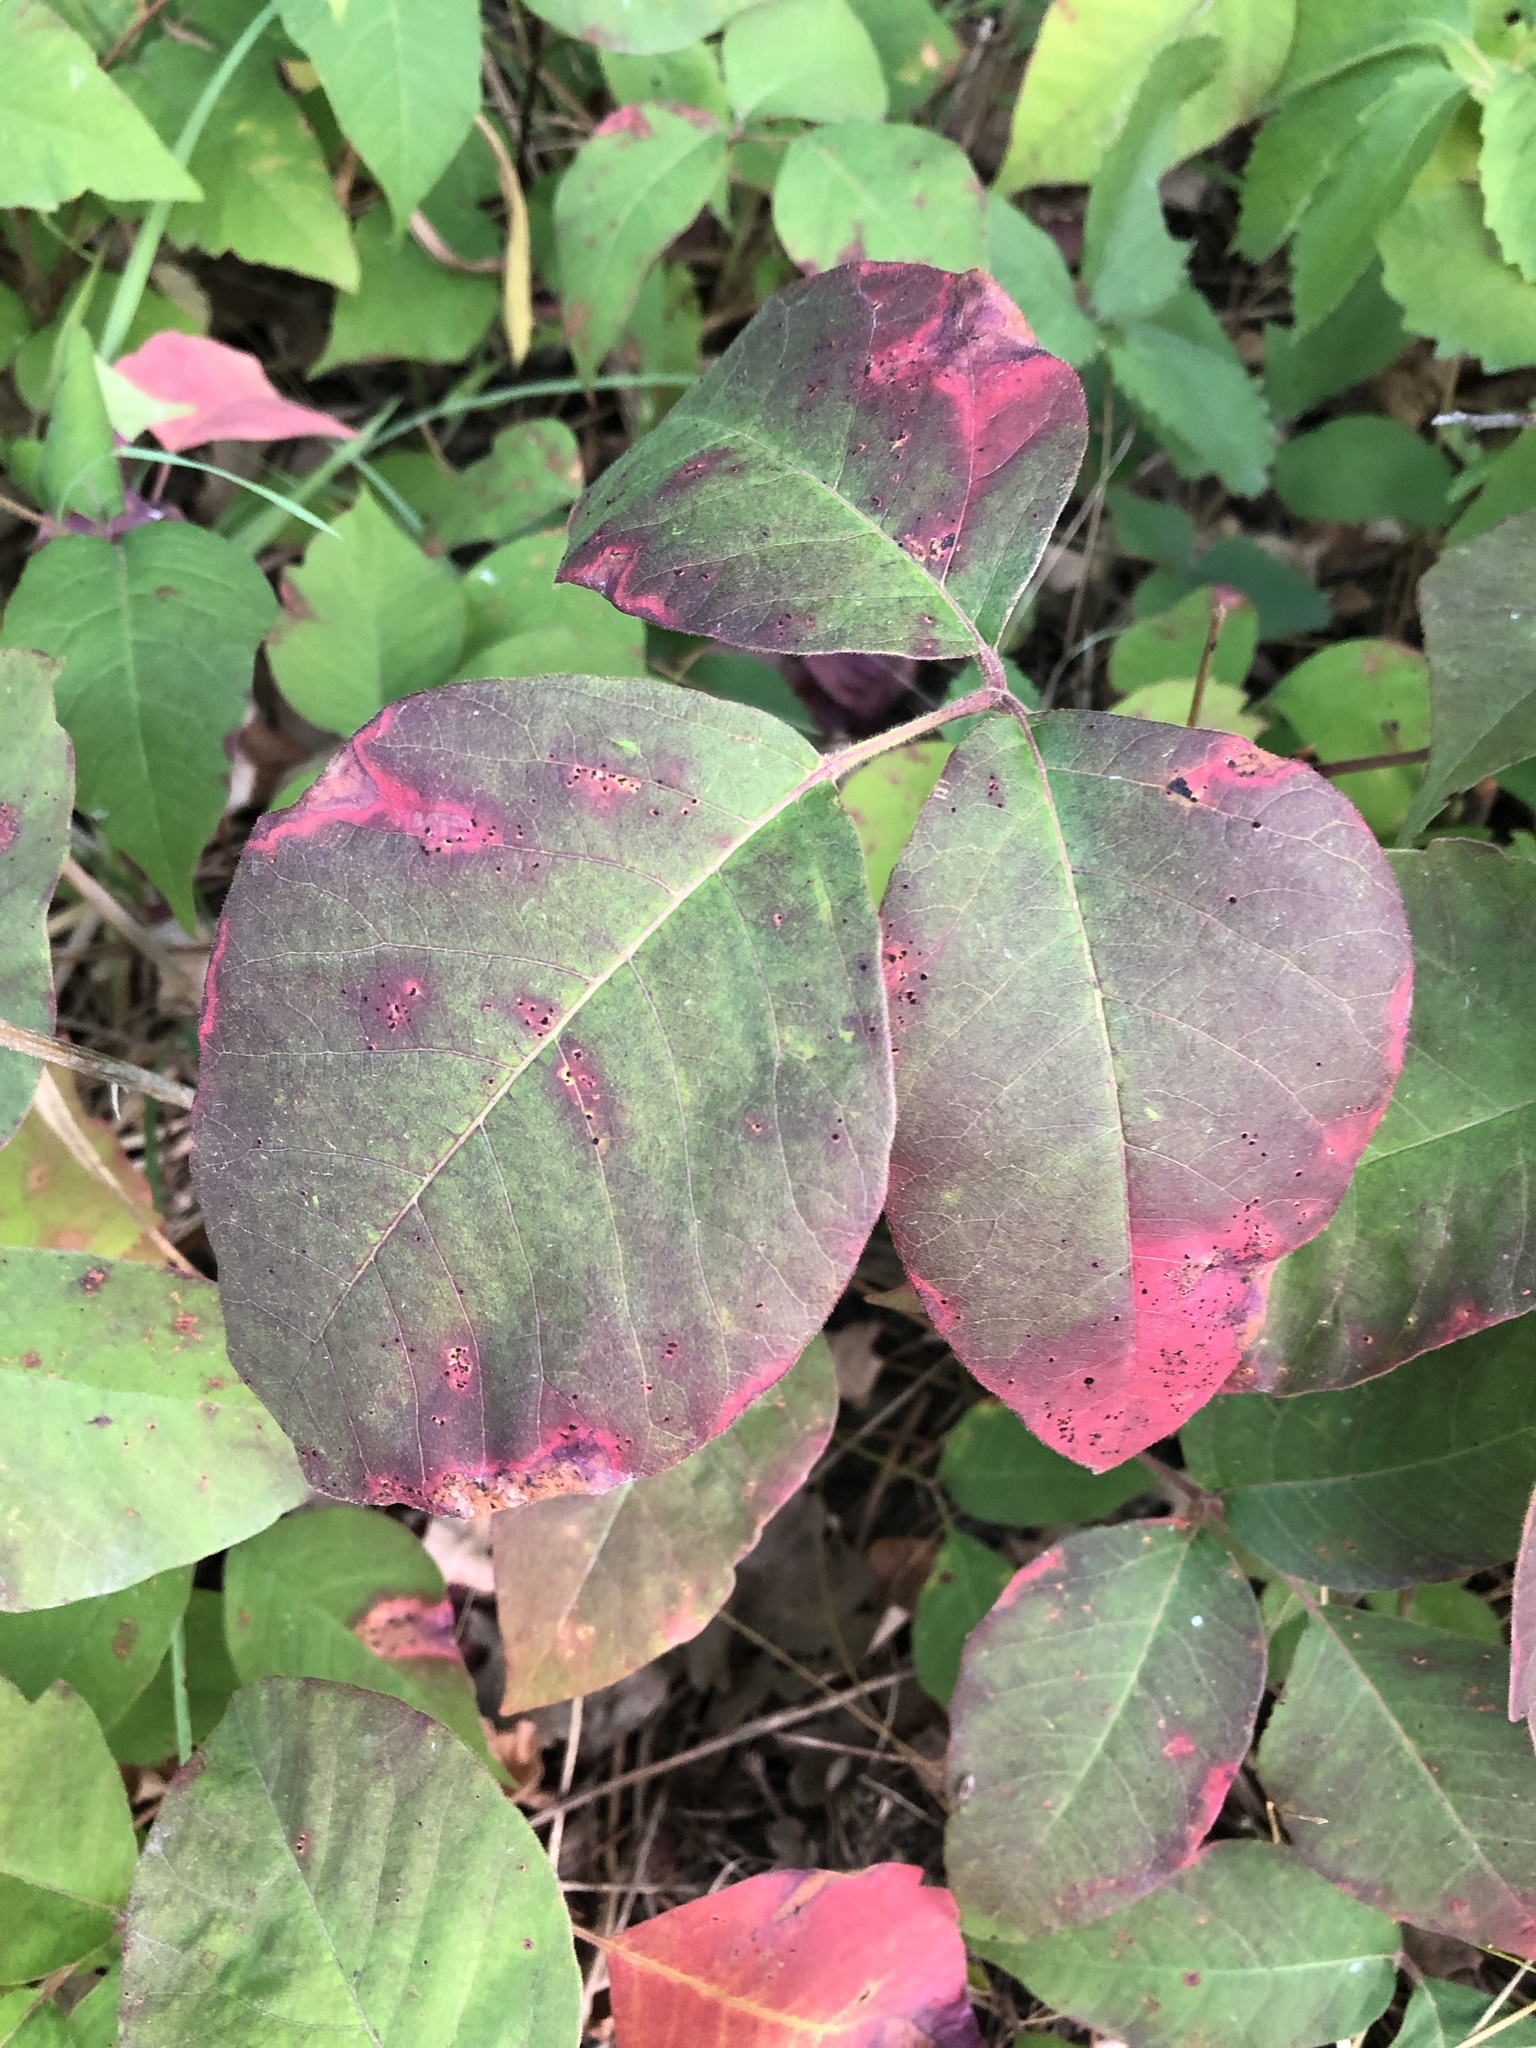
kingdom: Plantae
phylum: Tracheophyta
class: Magnoliopsida
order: Sapindales
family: Anacardiaceae
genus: Toxicodendron
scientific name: Toxicodendron rydbergii
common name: Rydberg's poison-ivy
